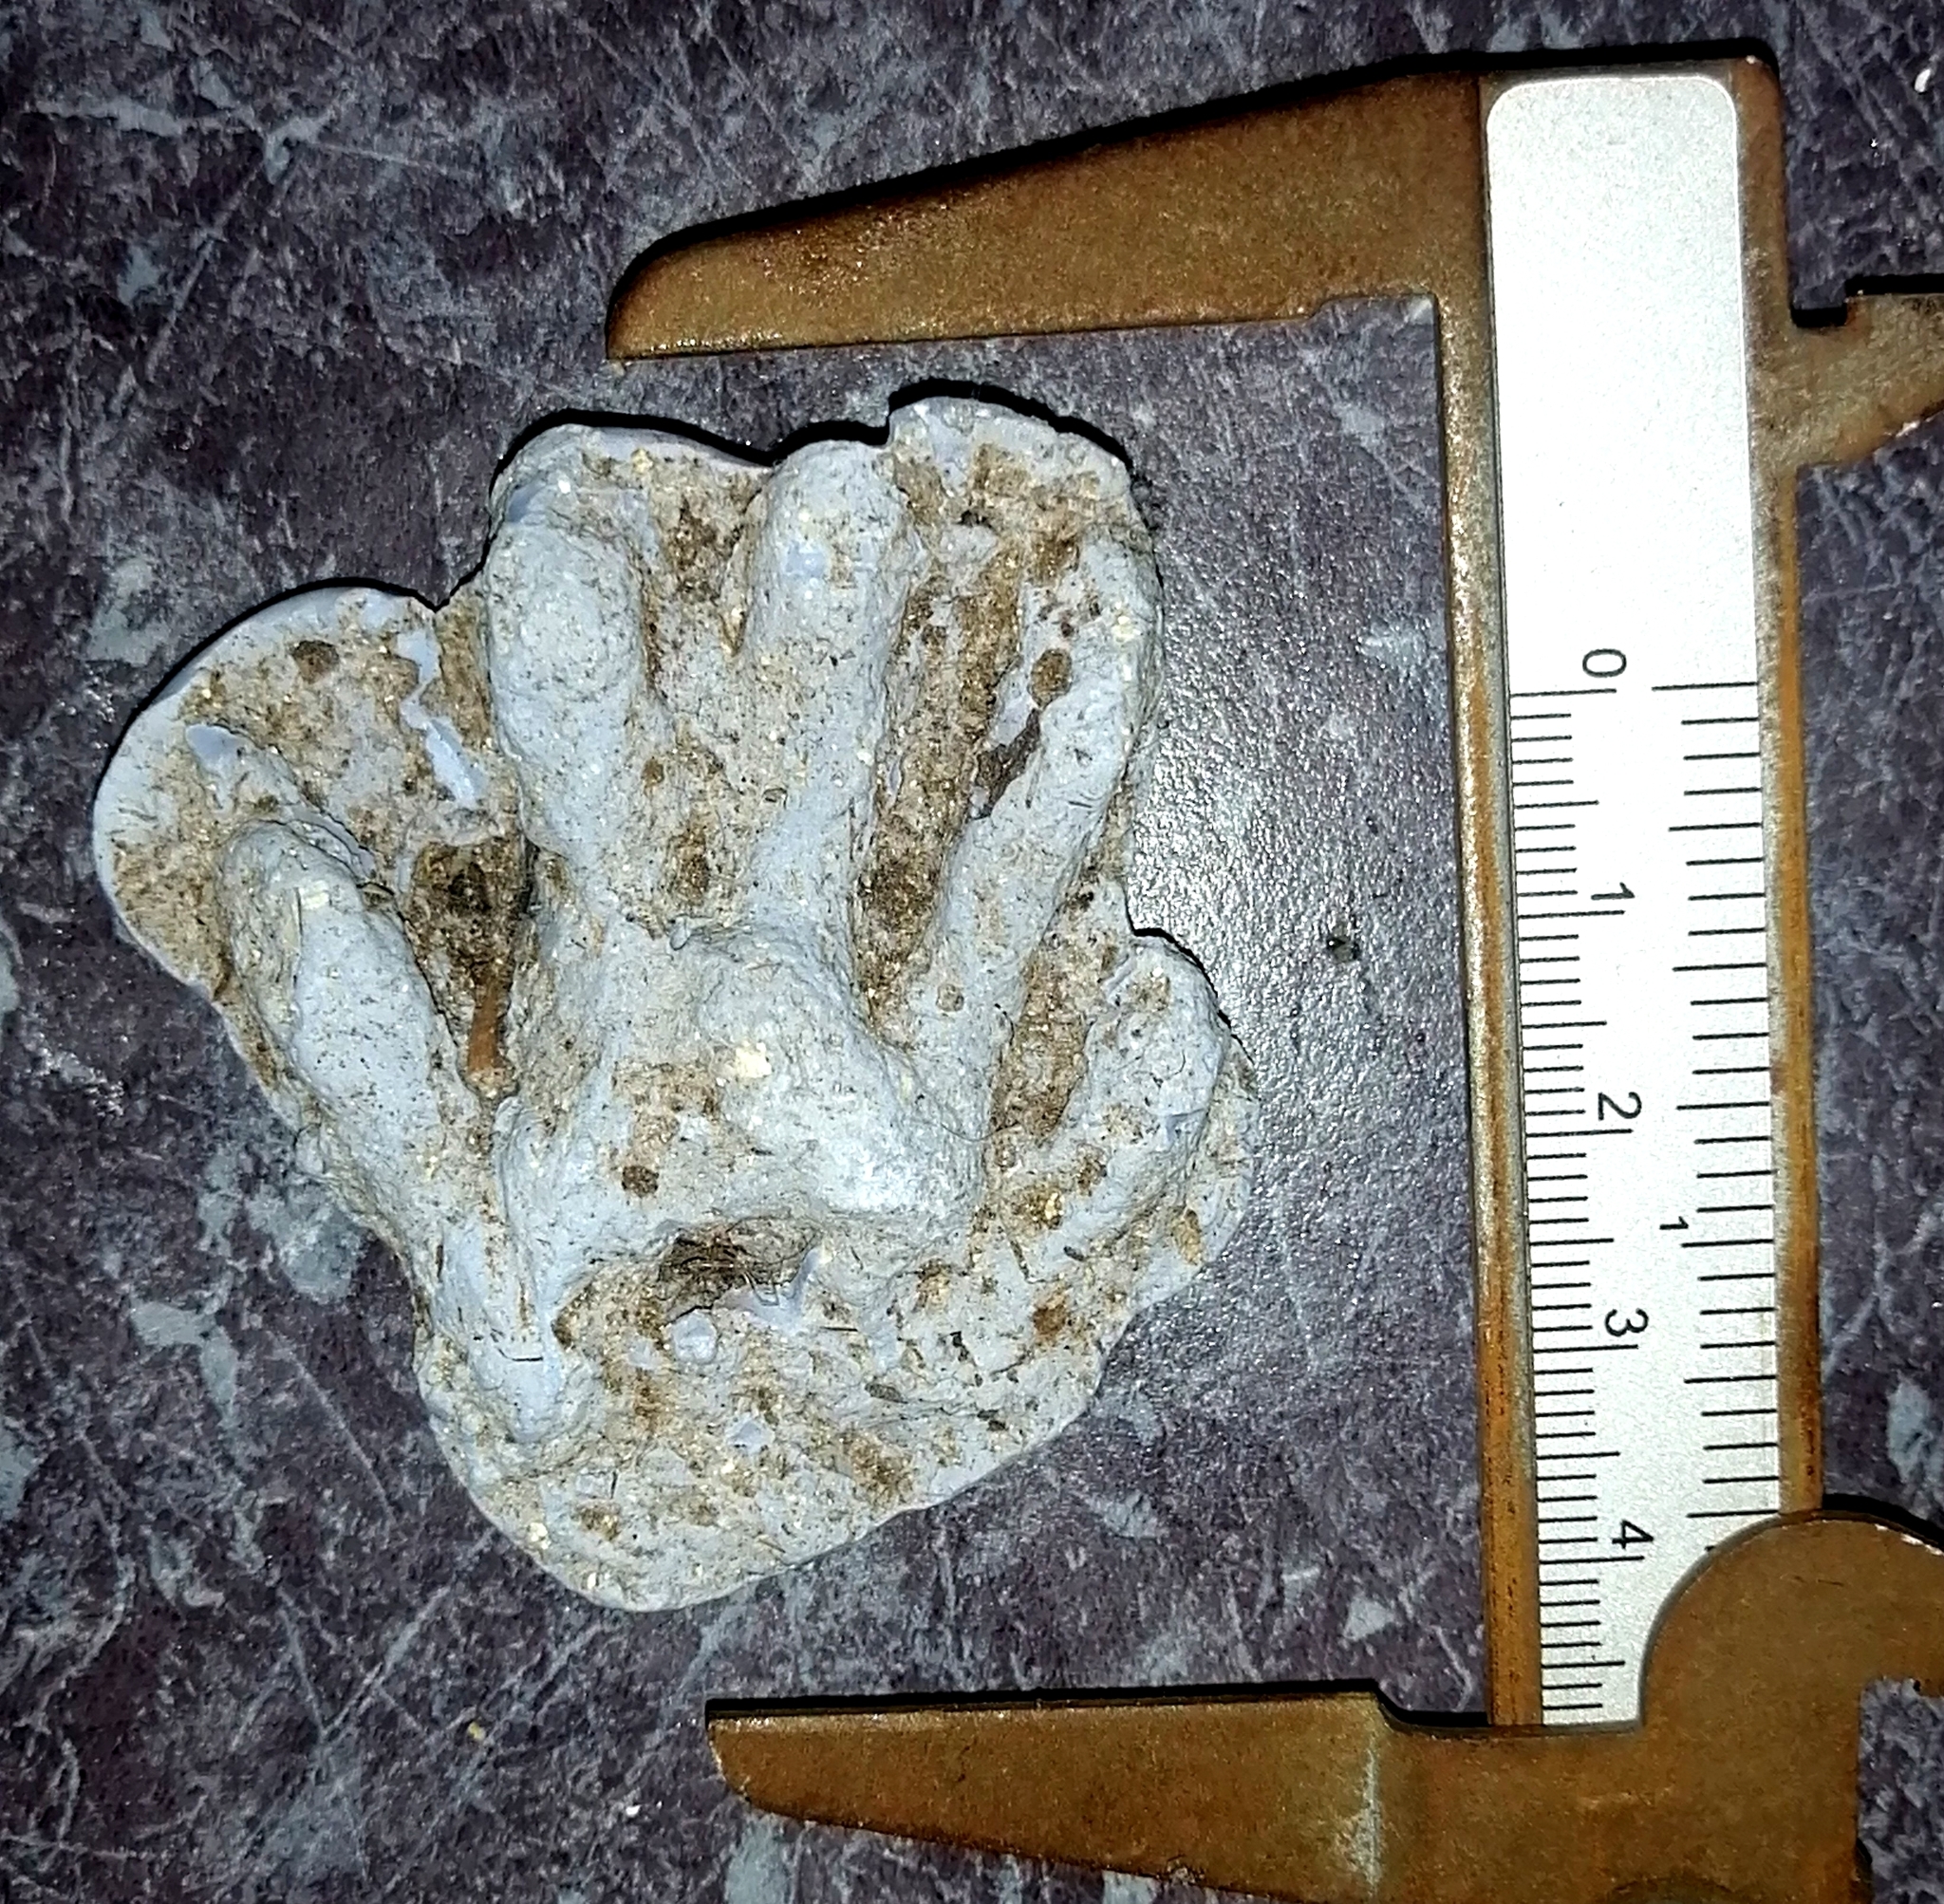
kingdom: Animalia
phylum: Chordata
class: Mammalia
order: Carnivora
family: Procyonidae
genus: Procyon
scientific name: Procyon lotor
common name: Raccoon
